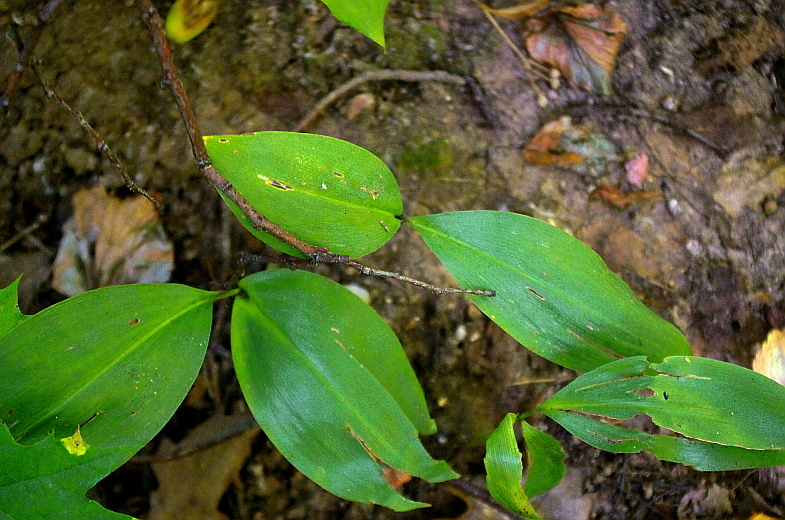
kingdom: Plantae
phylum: Tracheophyta
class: Liliopsida
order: Asparagales
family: Asparagaceae
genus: Convallaria
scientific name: Convallaria majalis
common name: Lily-of-the-valley
